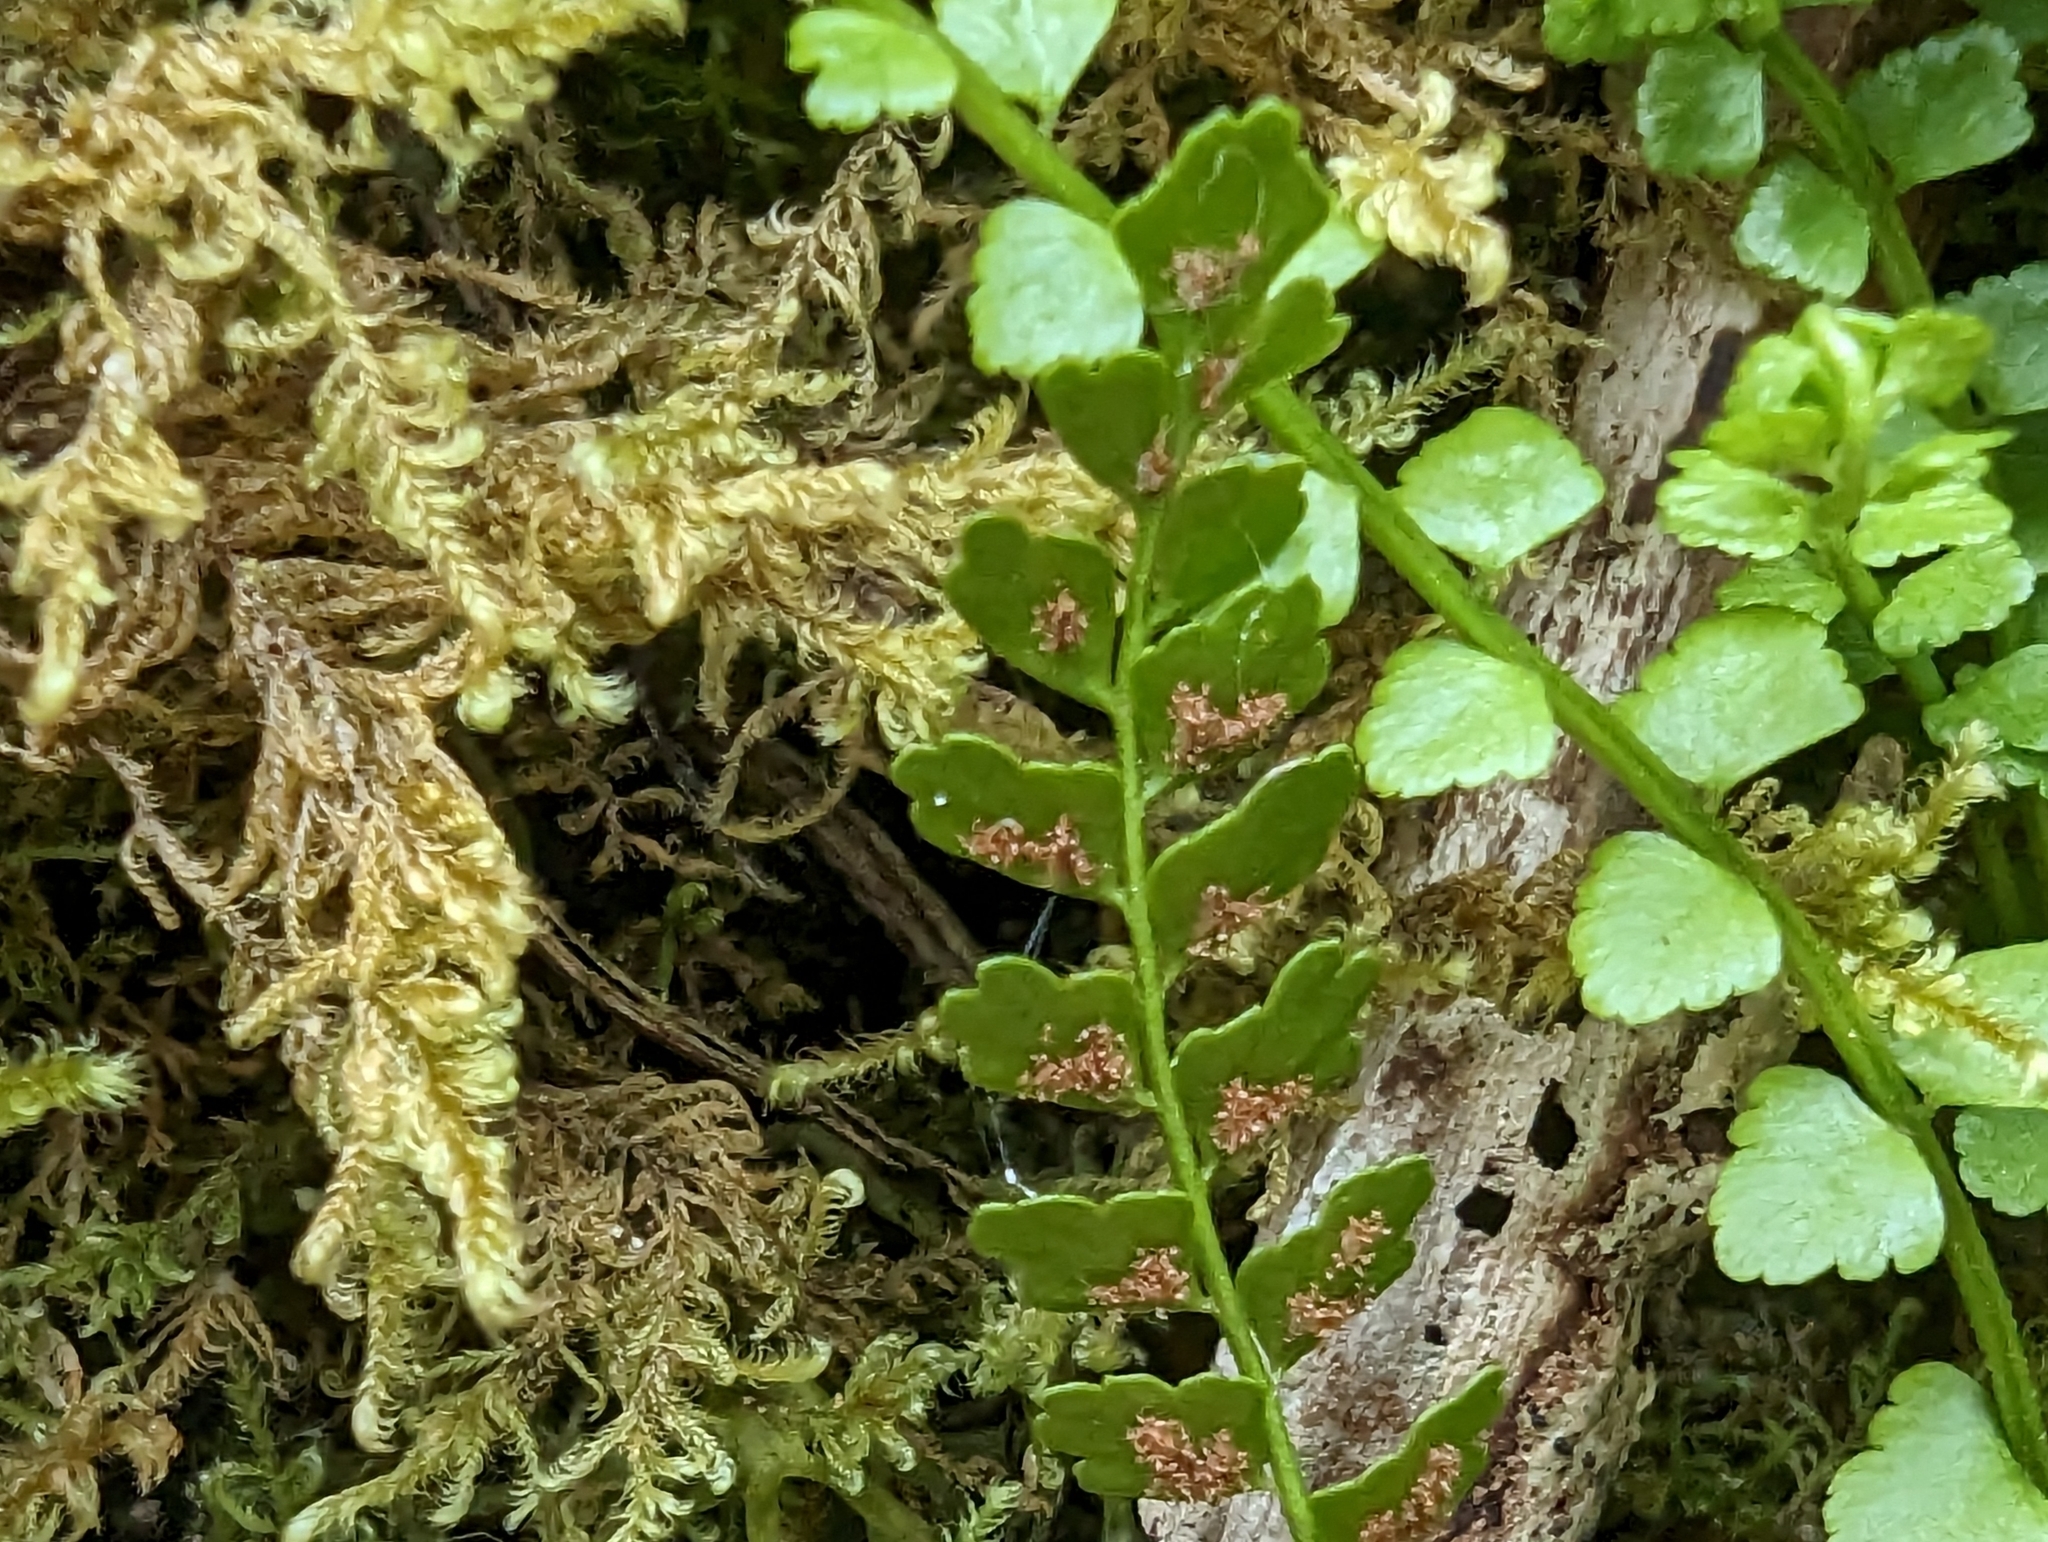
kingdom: Plantae
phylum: Tracheophyta
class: Polypodiopsida
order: Polypodiales
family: Aspleniaceae
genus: Asplenium
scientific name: Asplenium viride
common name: Green spleenwort
